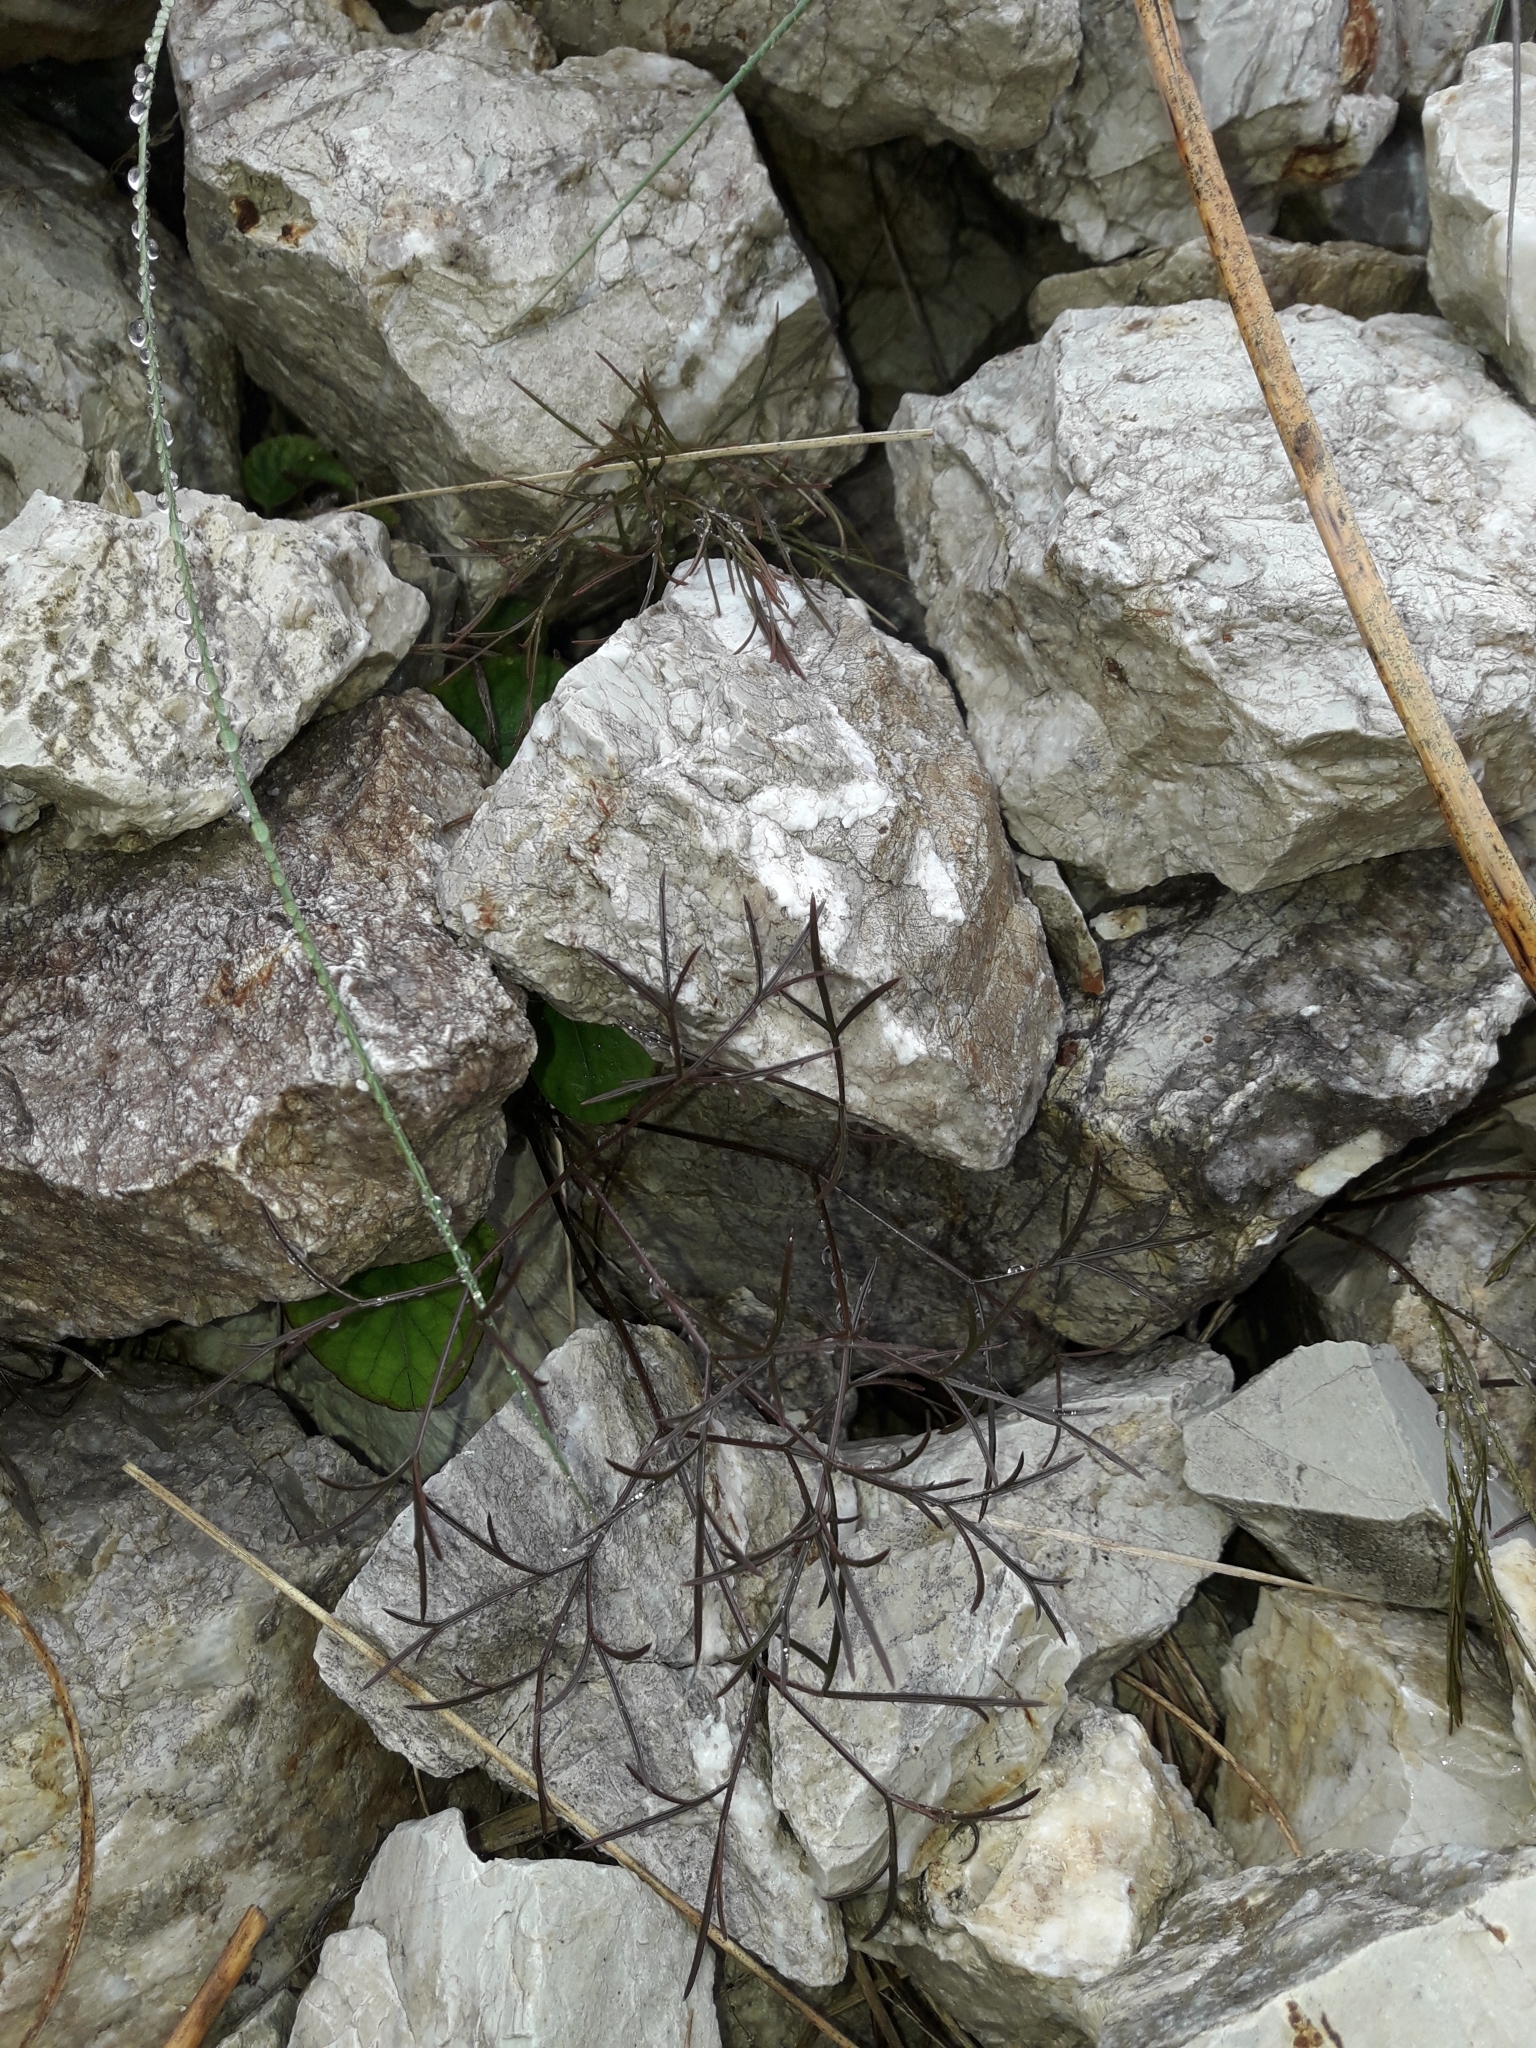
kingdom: Plantae
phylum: Tracheophyta
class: Magnoliopsida
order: Apiales
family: Apiaceae
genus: Anisotome
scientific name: Anisotome filifolia
